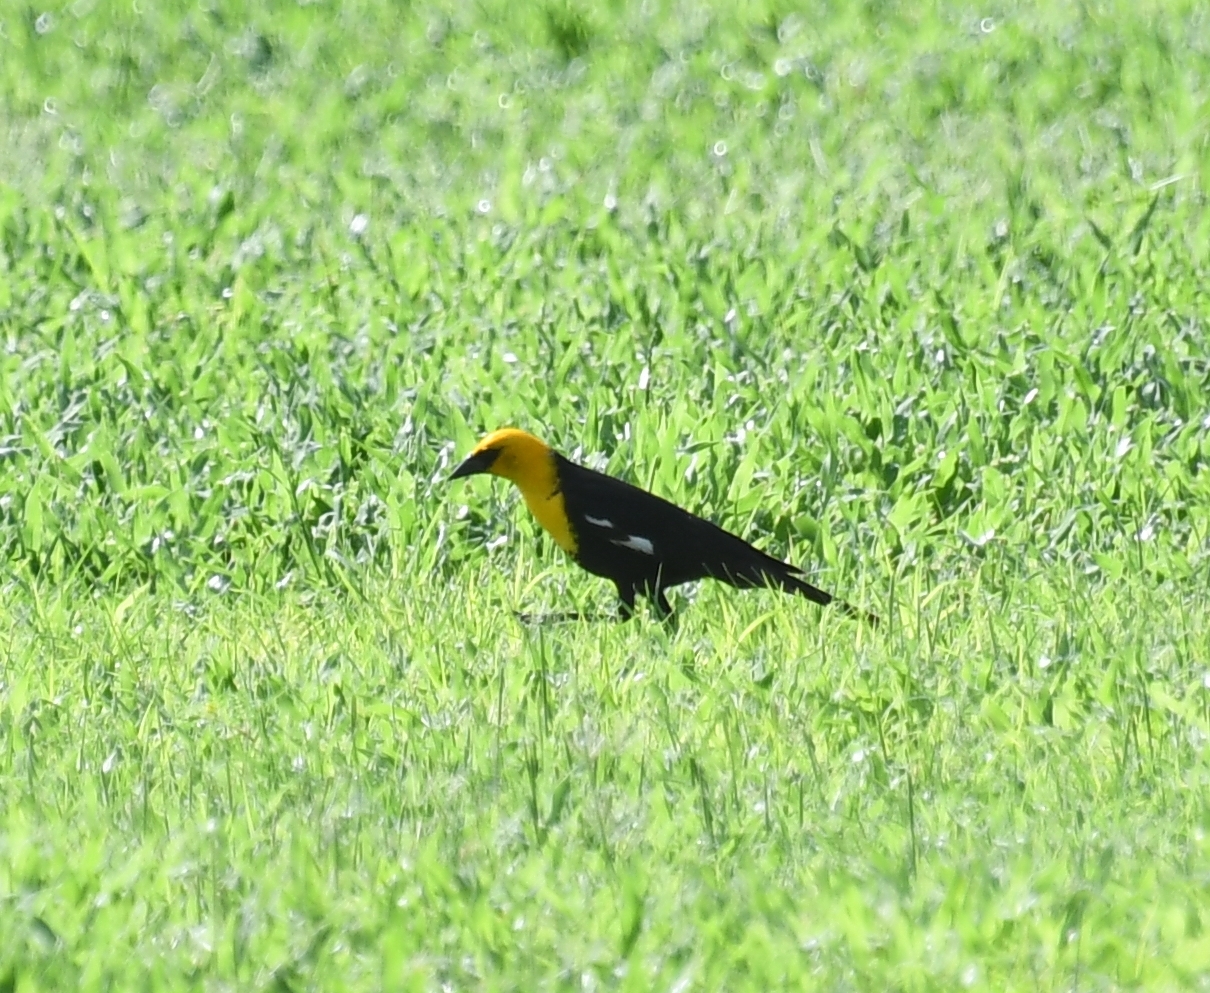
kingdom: Animalia
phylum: Chordata
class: Aves
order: Passeriformes
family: Icteridae
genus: Xanthocephalus
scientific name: Xanthocephalus xanthocephalus
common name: Yellow-headed blackbird
